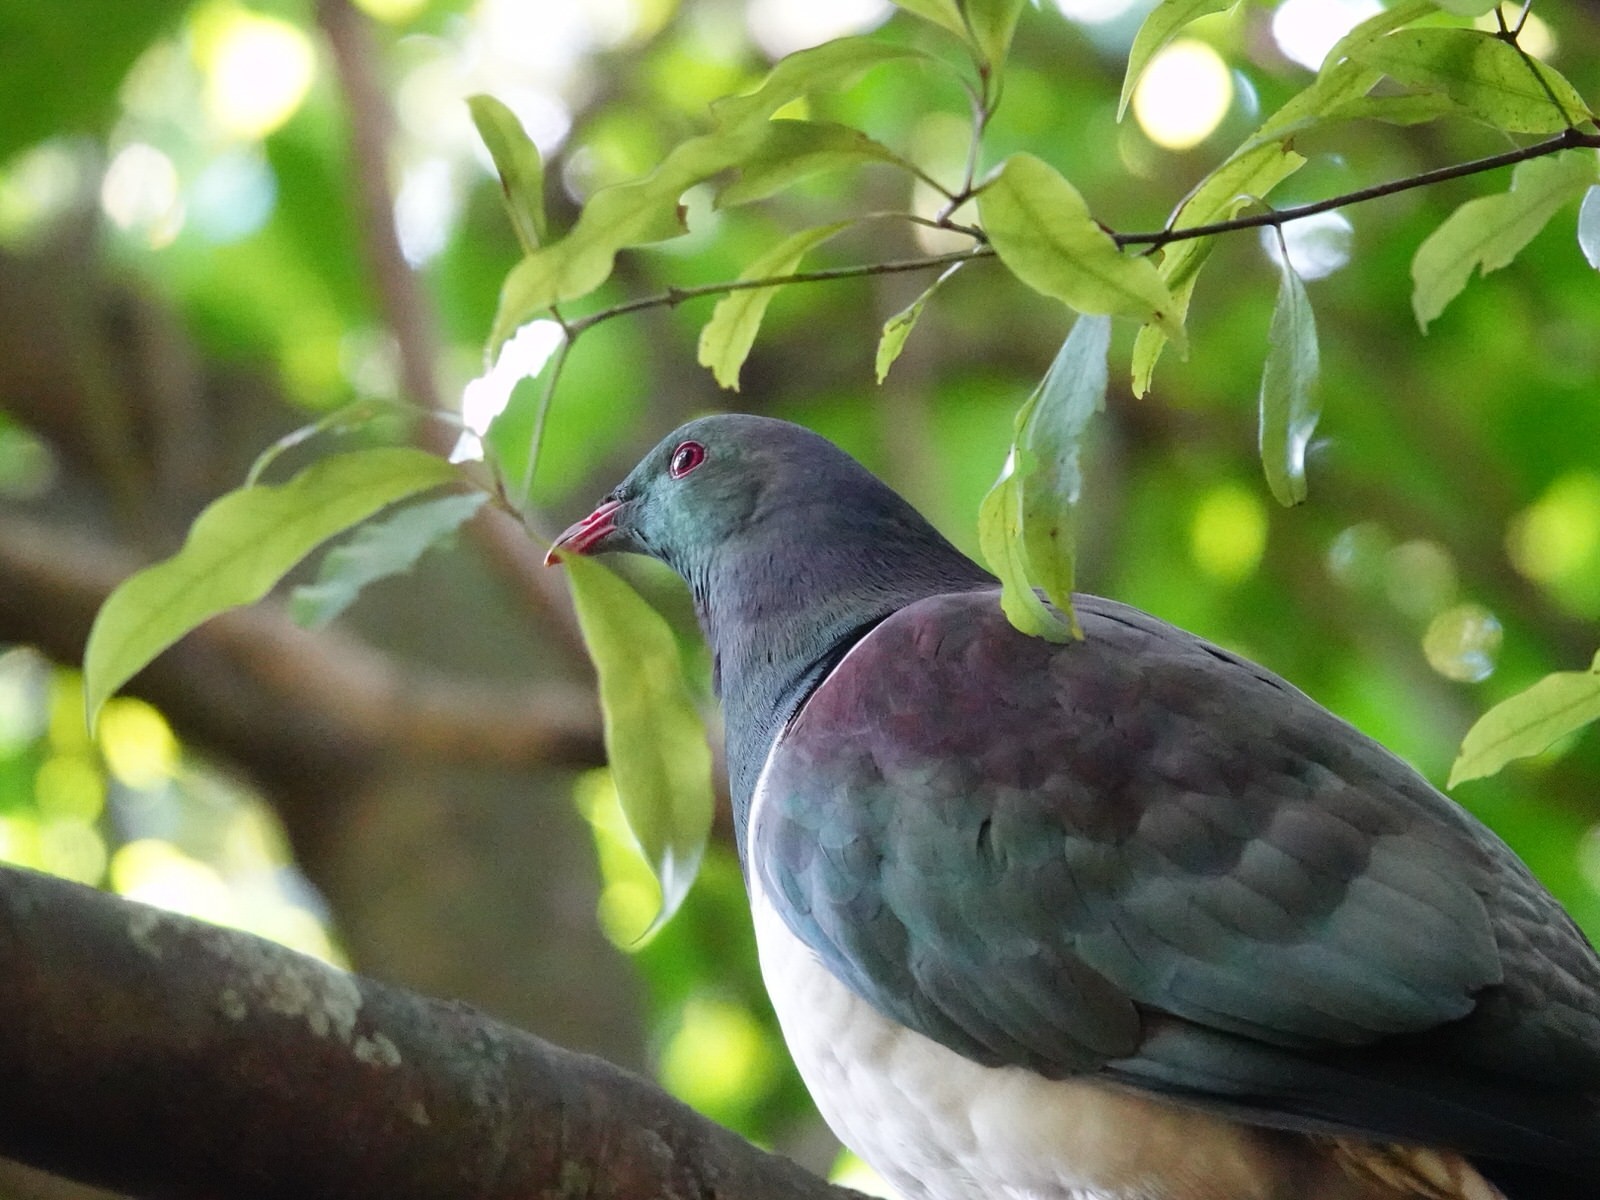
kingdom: Animalia
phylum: Chordata
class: Aves
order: Columbiformes
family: Columbidae
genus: Hemiphaga
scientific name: Hemiphaga novaeseelandiae
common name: New zealand pigeon
